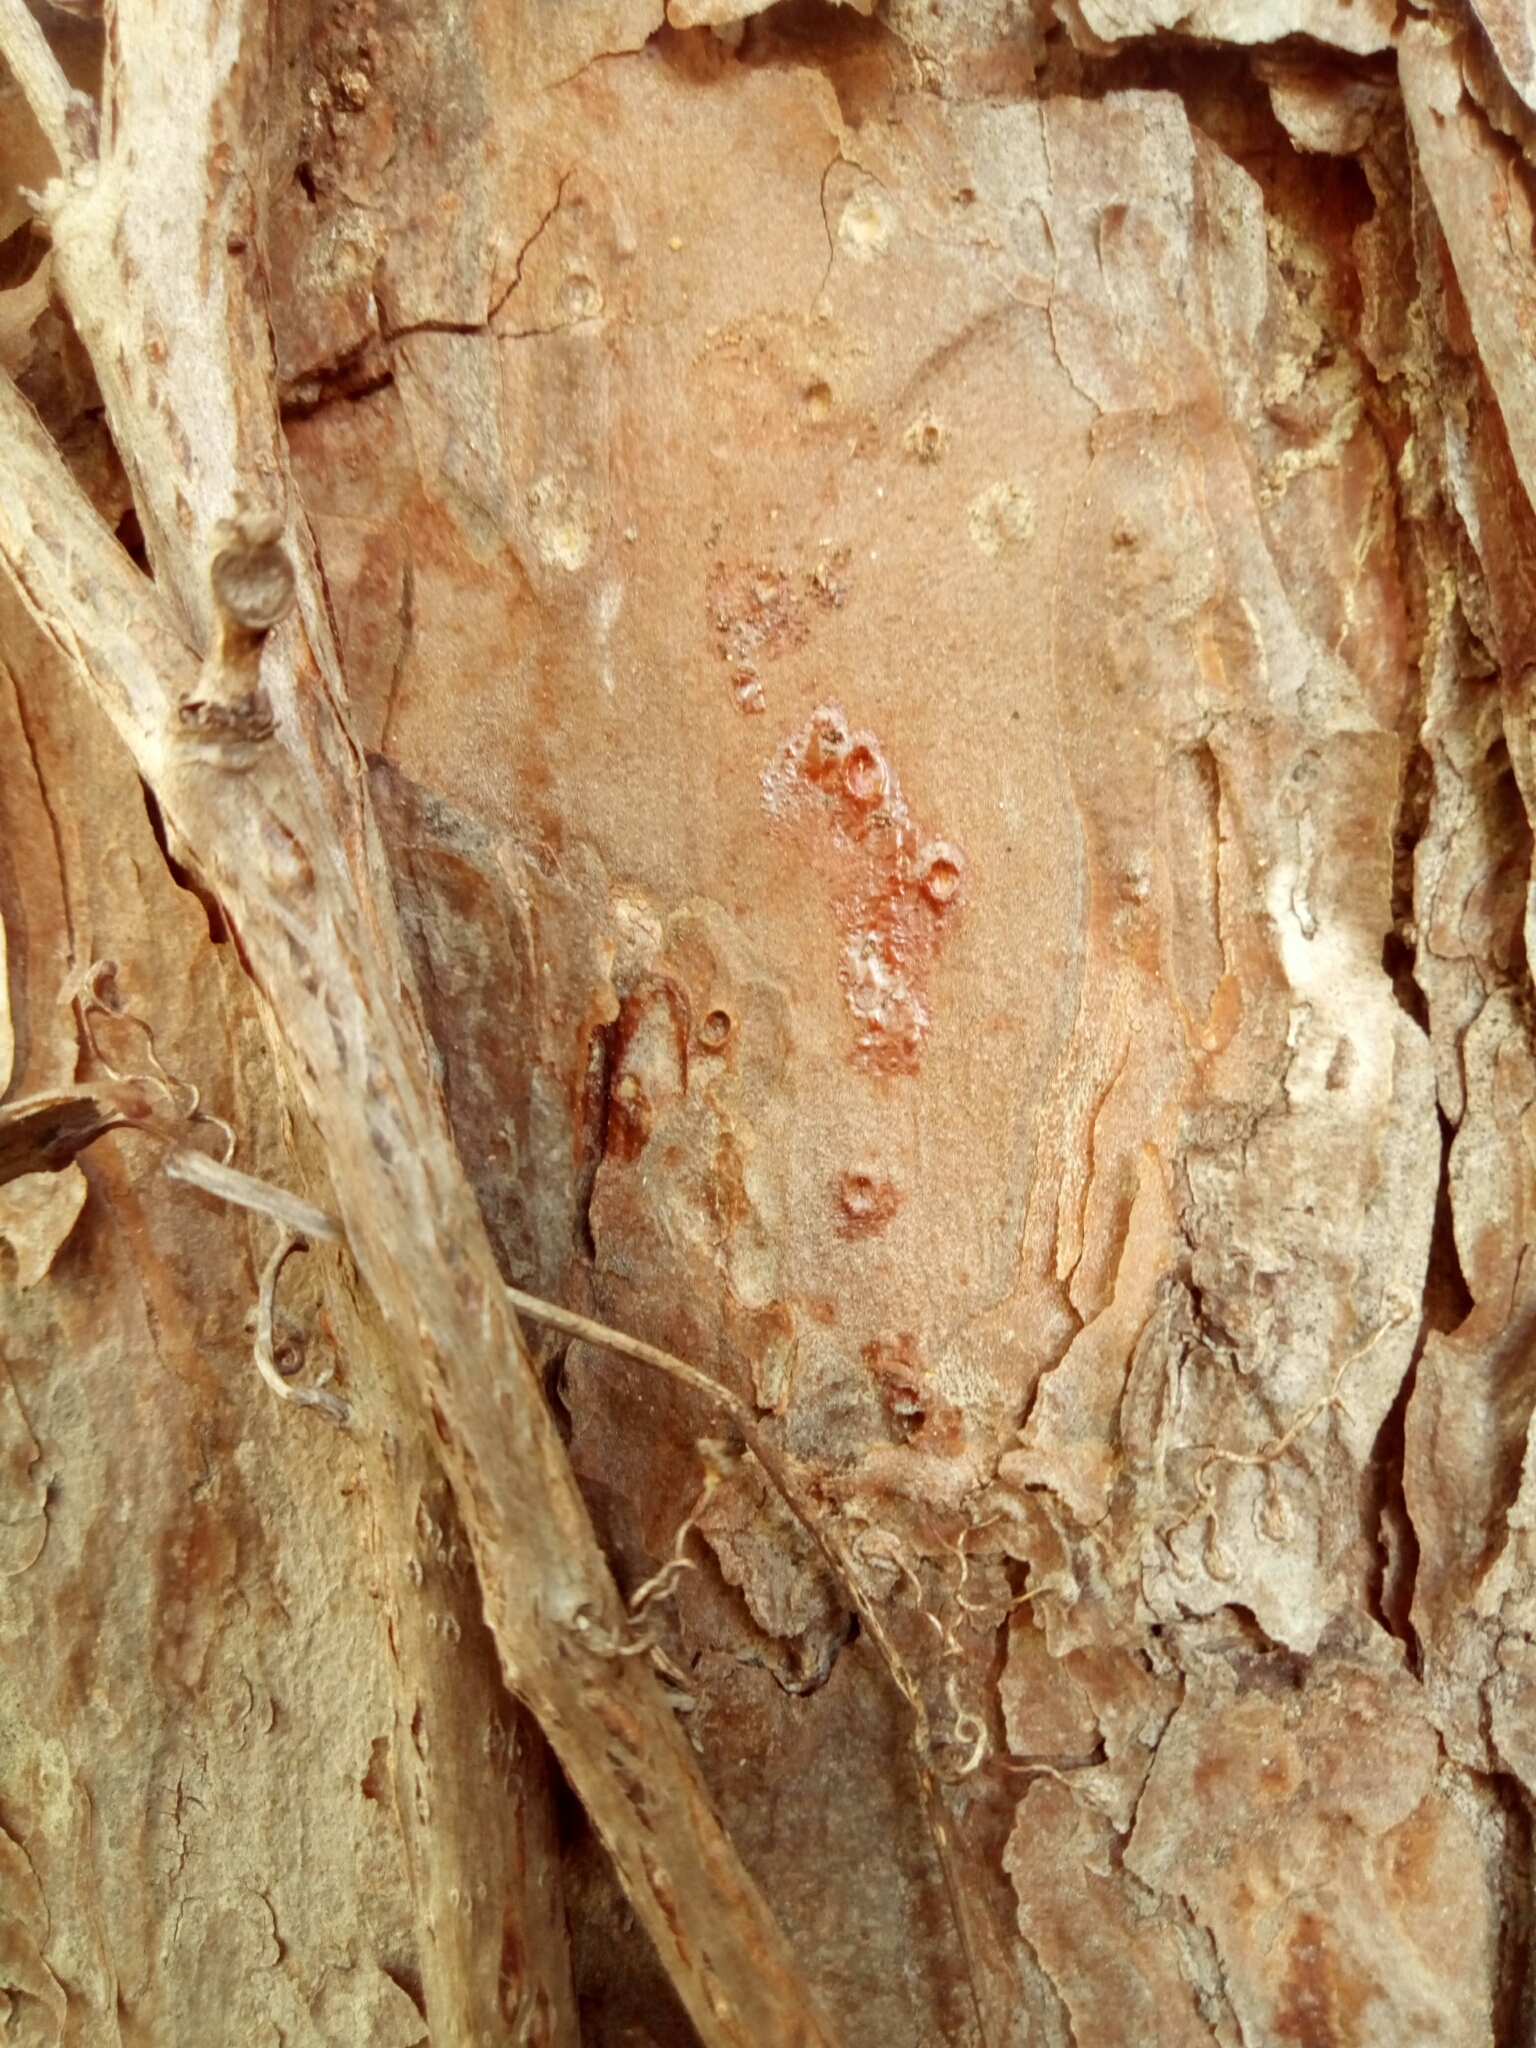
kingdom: Plantae
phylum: Tracheophyta
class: Pinopsida
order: Pinales
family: Pinaceae
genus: Pinus
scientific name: Pinus echinata
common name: Shortleaf pine
